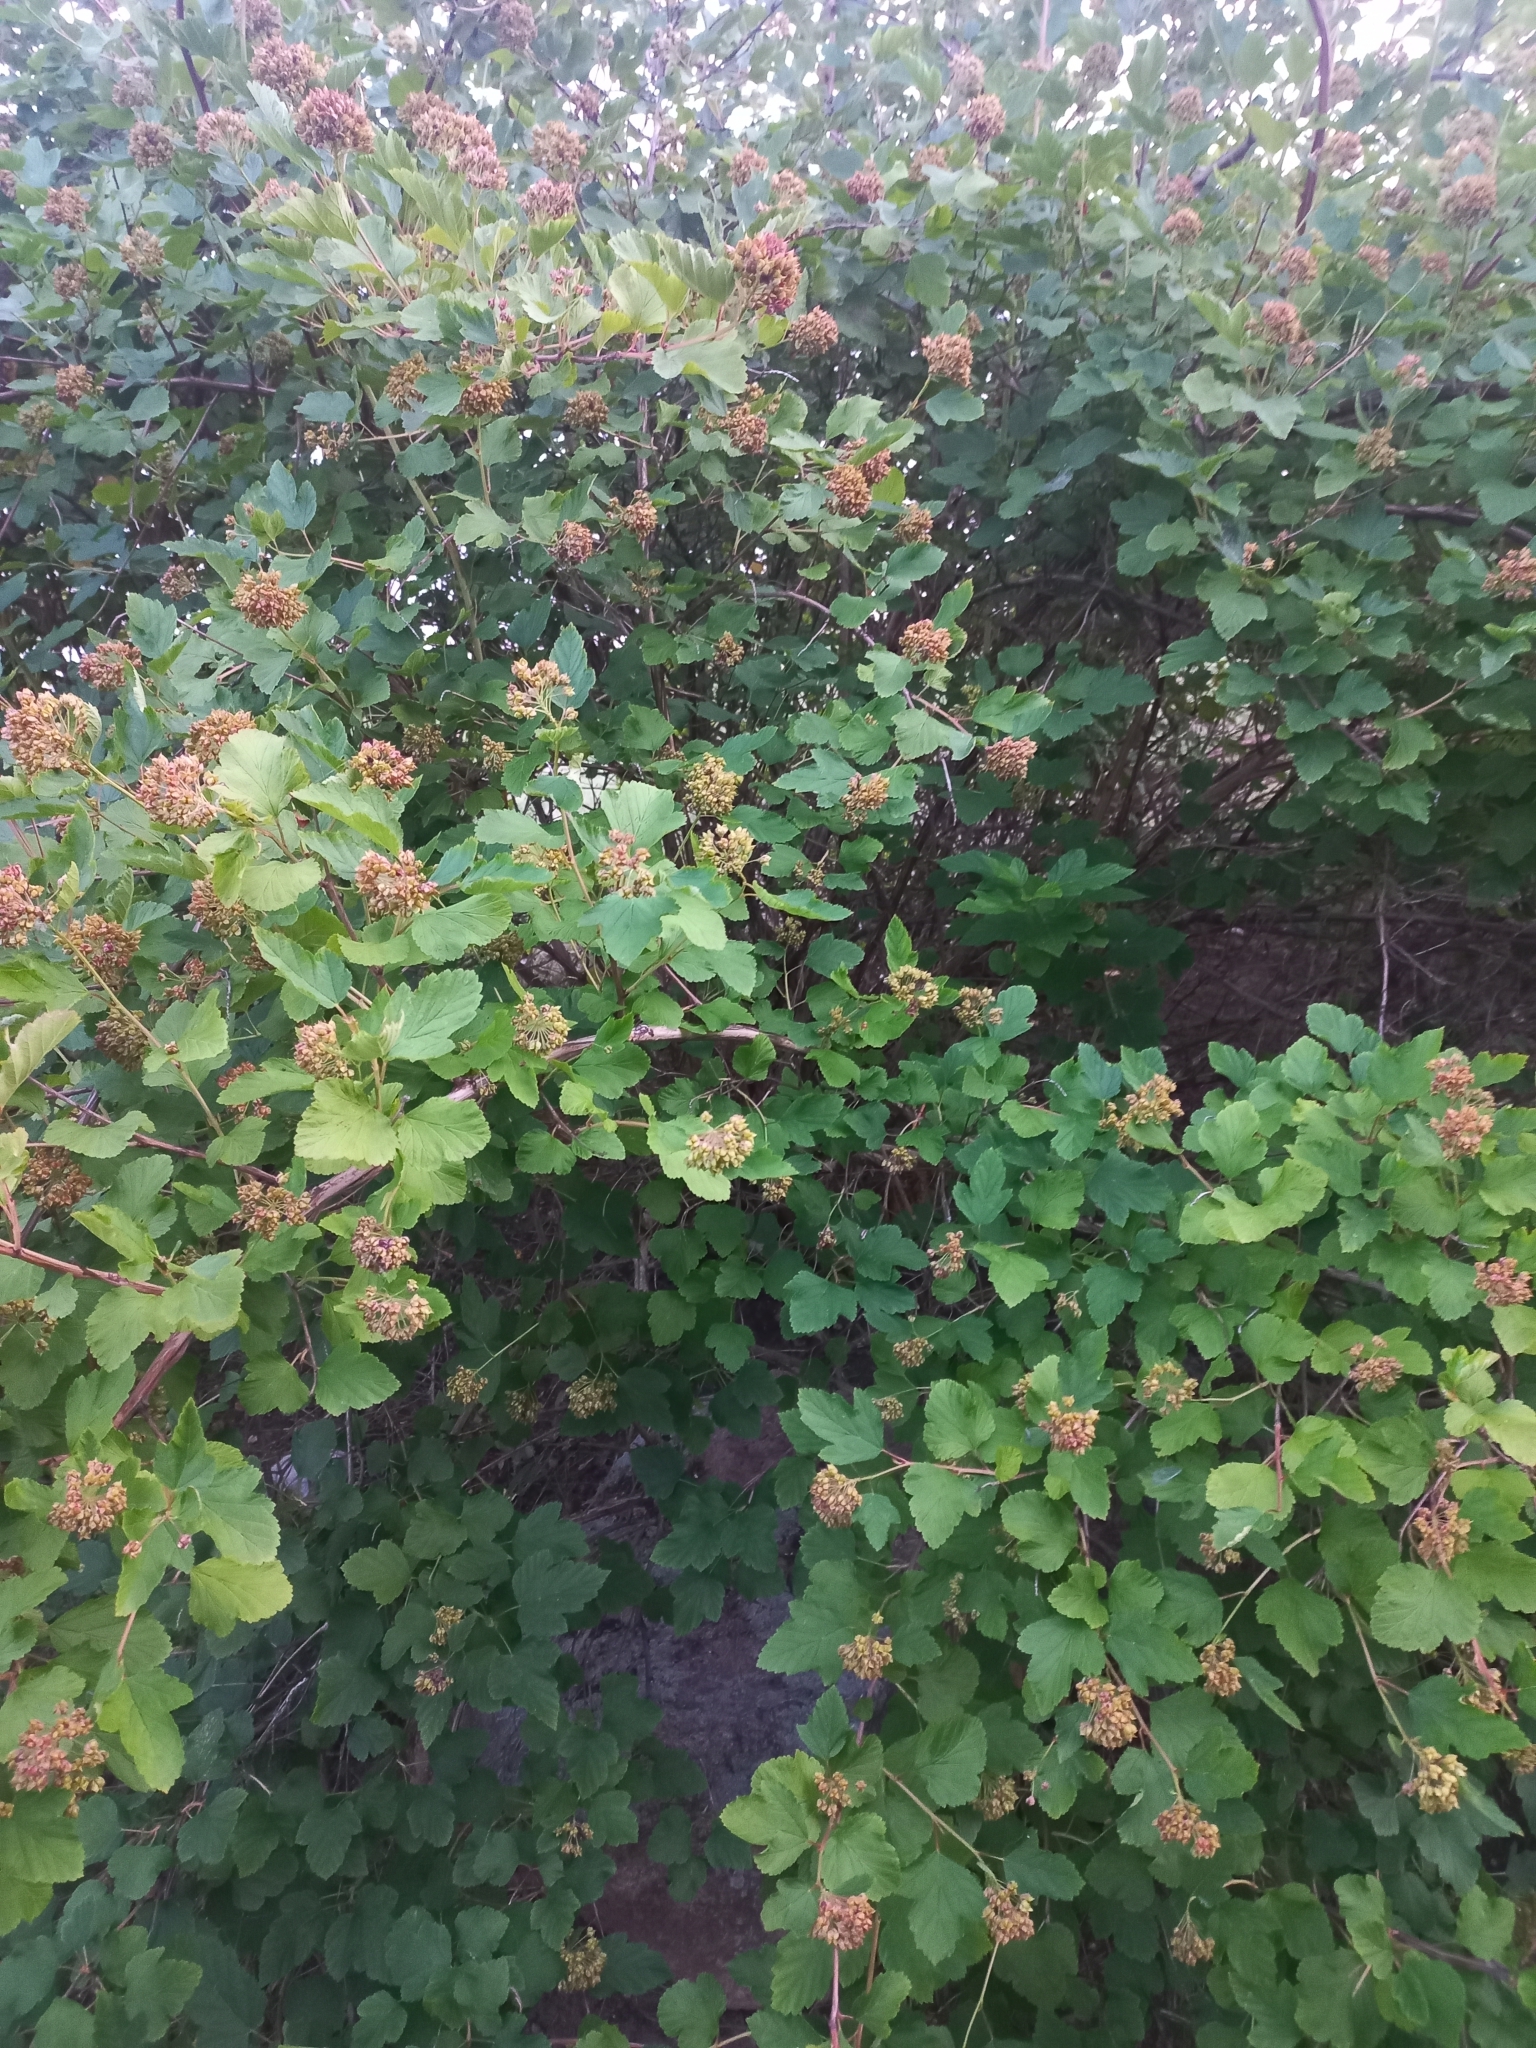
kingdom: Plantae
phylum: Tracheophyta
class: Magnoliopsida
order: Rosales
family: Rosaceae
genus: Physocarpus
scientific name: Physocarpus opulifolius
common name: Ninebark
